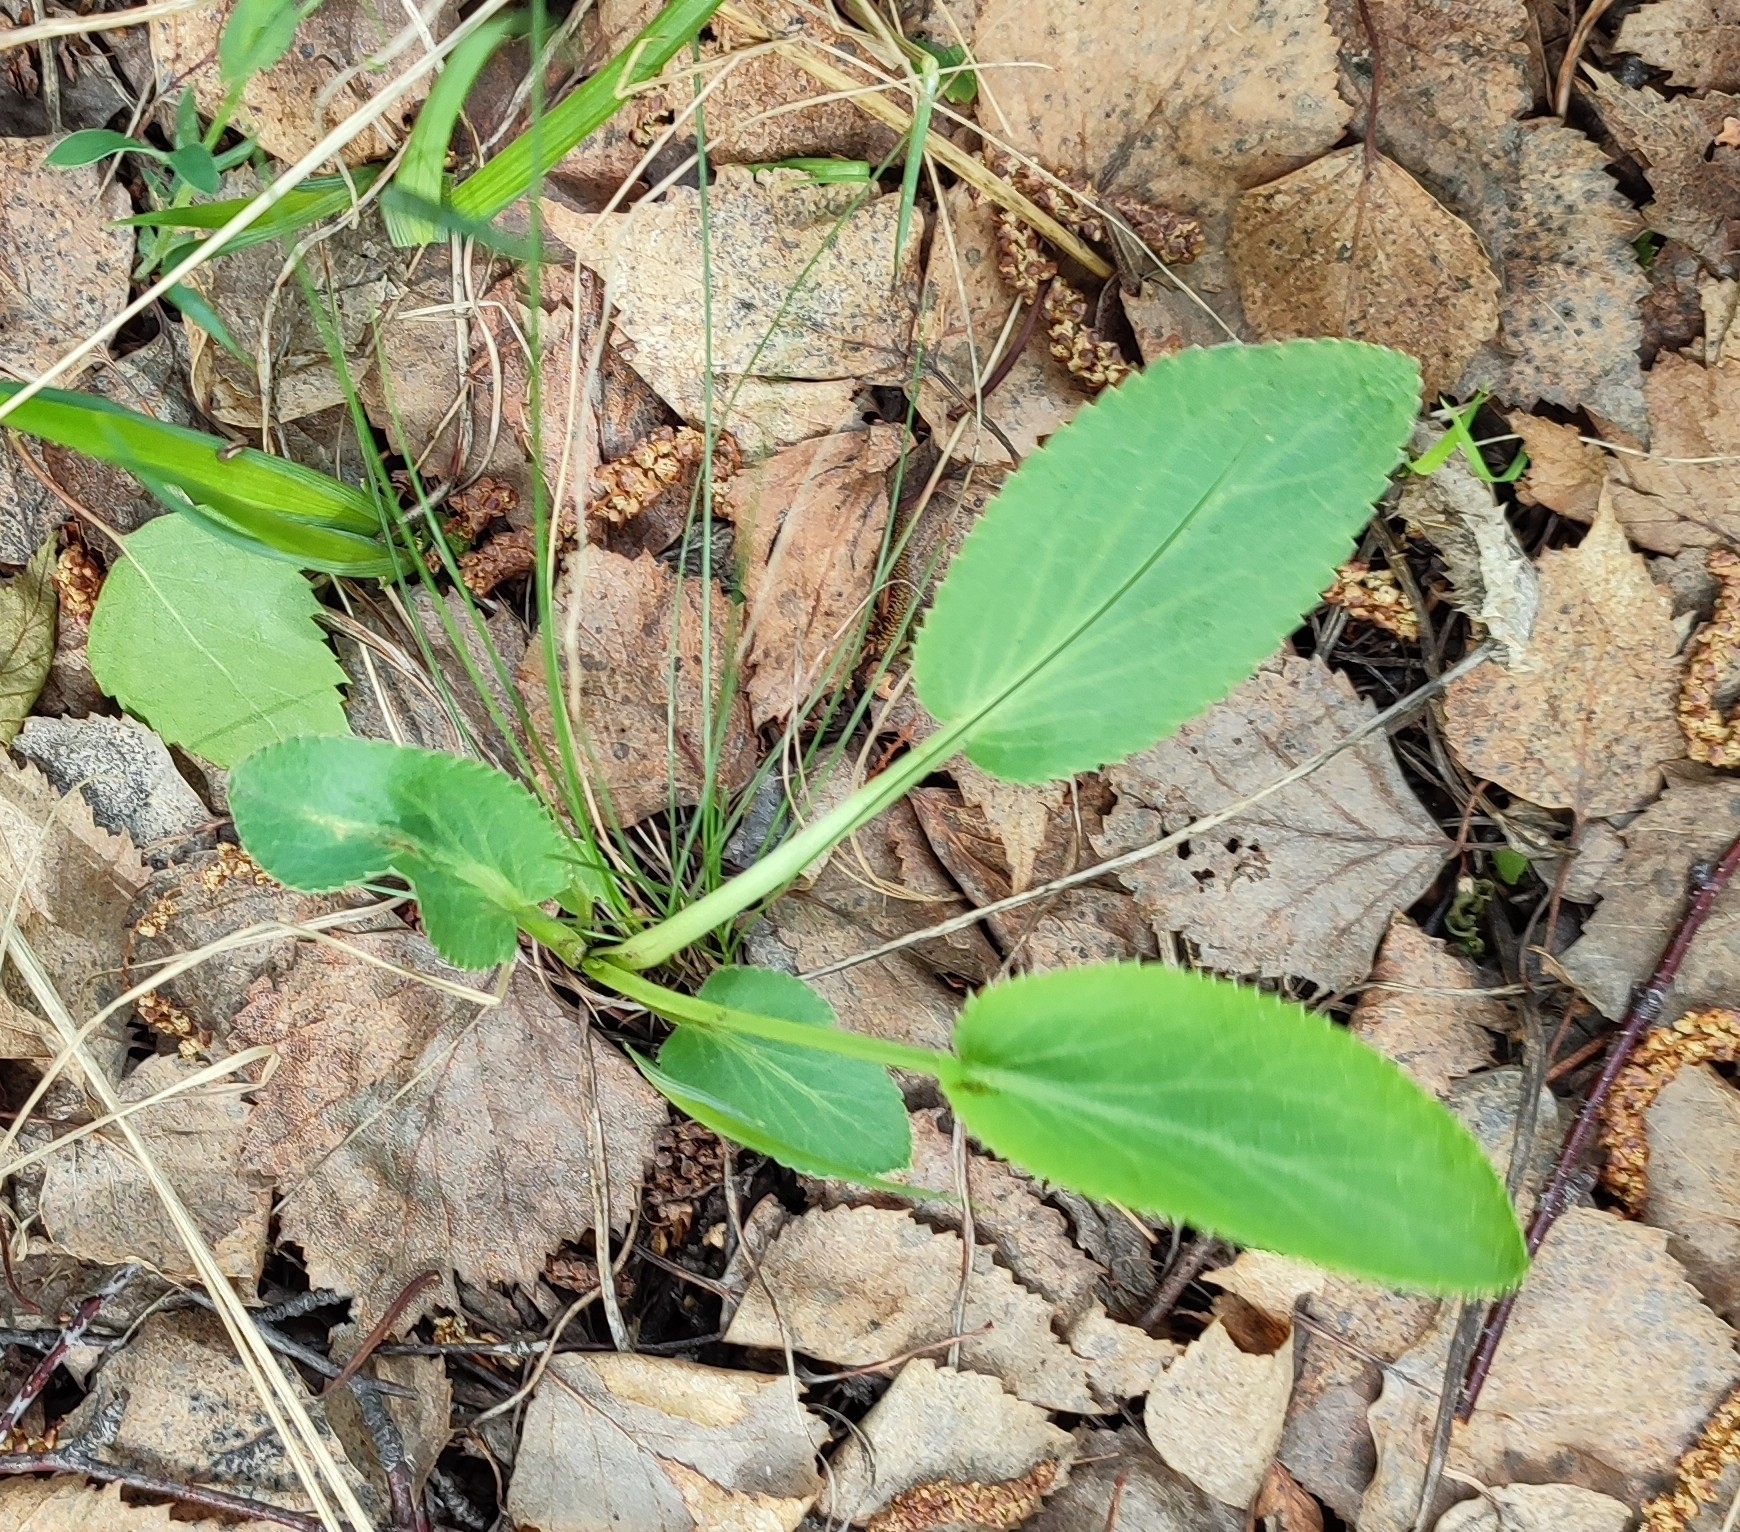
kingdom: Plantae
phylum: Tracheophyta
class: Magnoliopsida
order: Apiales
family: Apiaceae
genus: Eryngium
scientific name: Eryngium planum
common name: Blue eryngo
